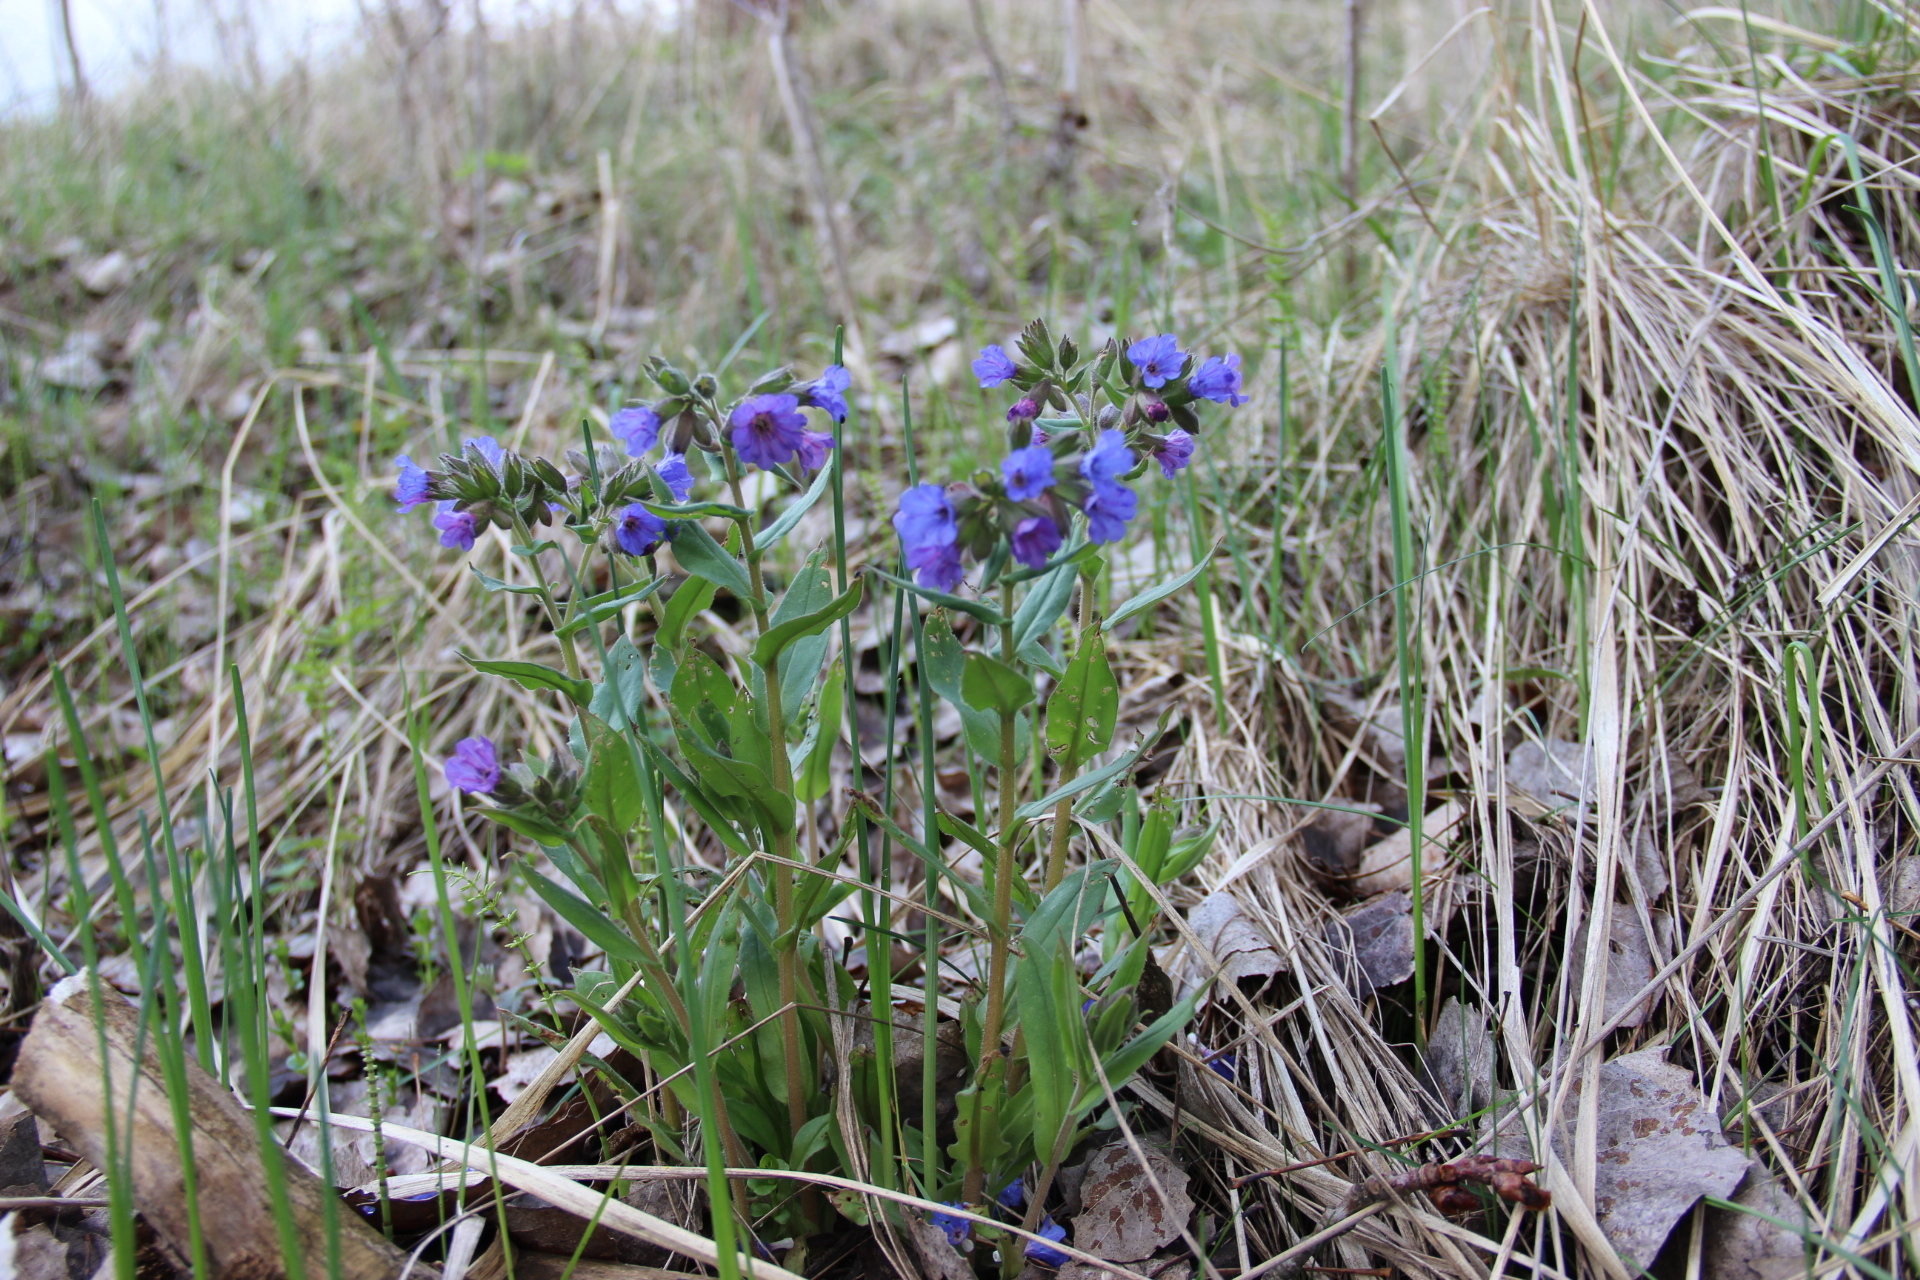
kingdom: Plantae
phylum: Tracheophyta
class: Magnoliopsida
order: Boraginales
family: Boraginaceae
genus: Pulmonaria
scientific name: Pulmonaria angustifolia
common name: Blue cowslip
